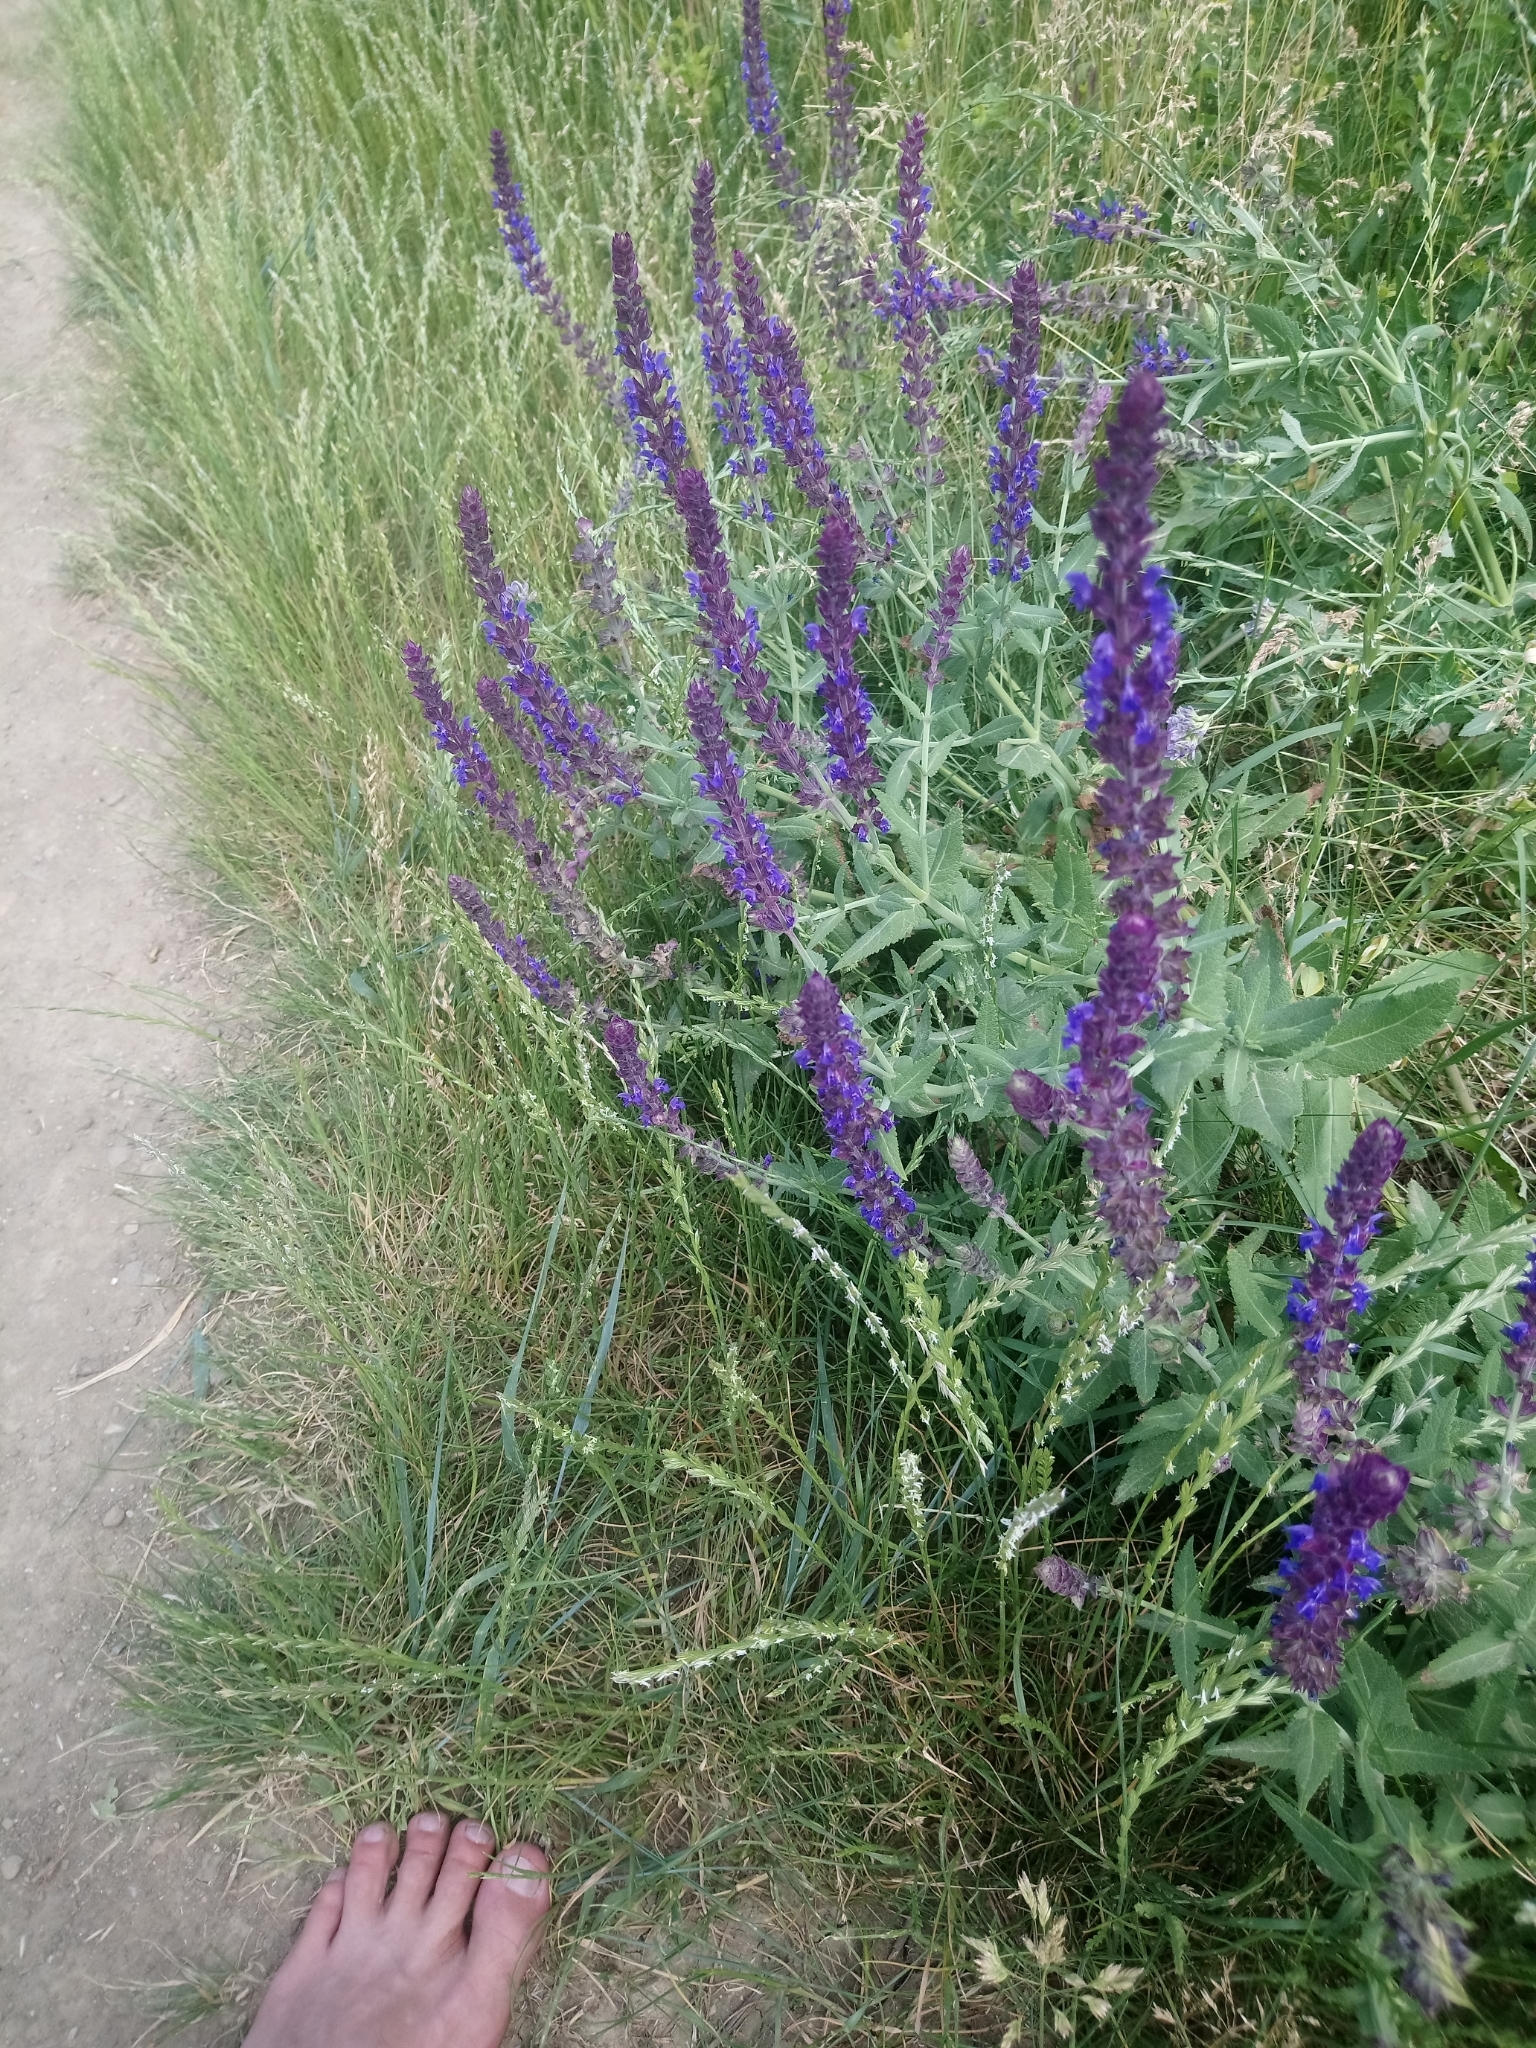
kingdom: Plantae
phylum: Tracheophyta
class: Magnoliopsida
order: Lamiales
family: Lamiaceae
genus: Salvia
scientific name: Salvia nemorosa
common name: Balkan clary
